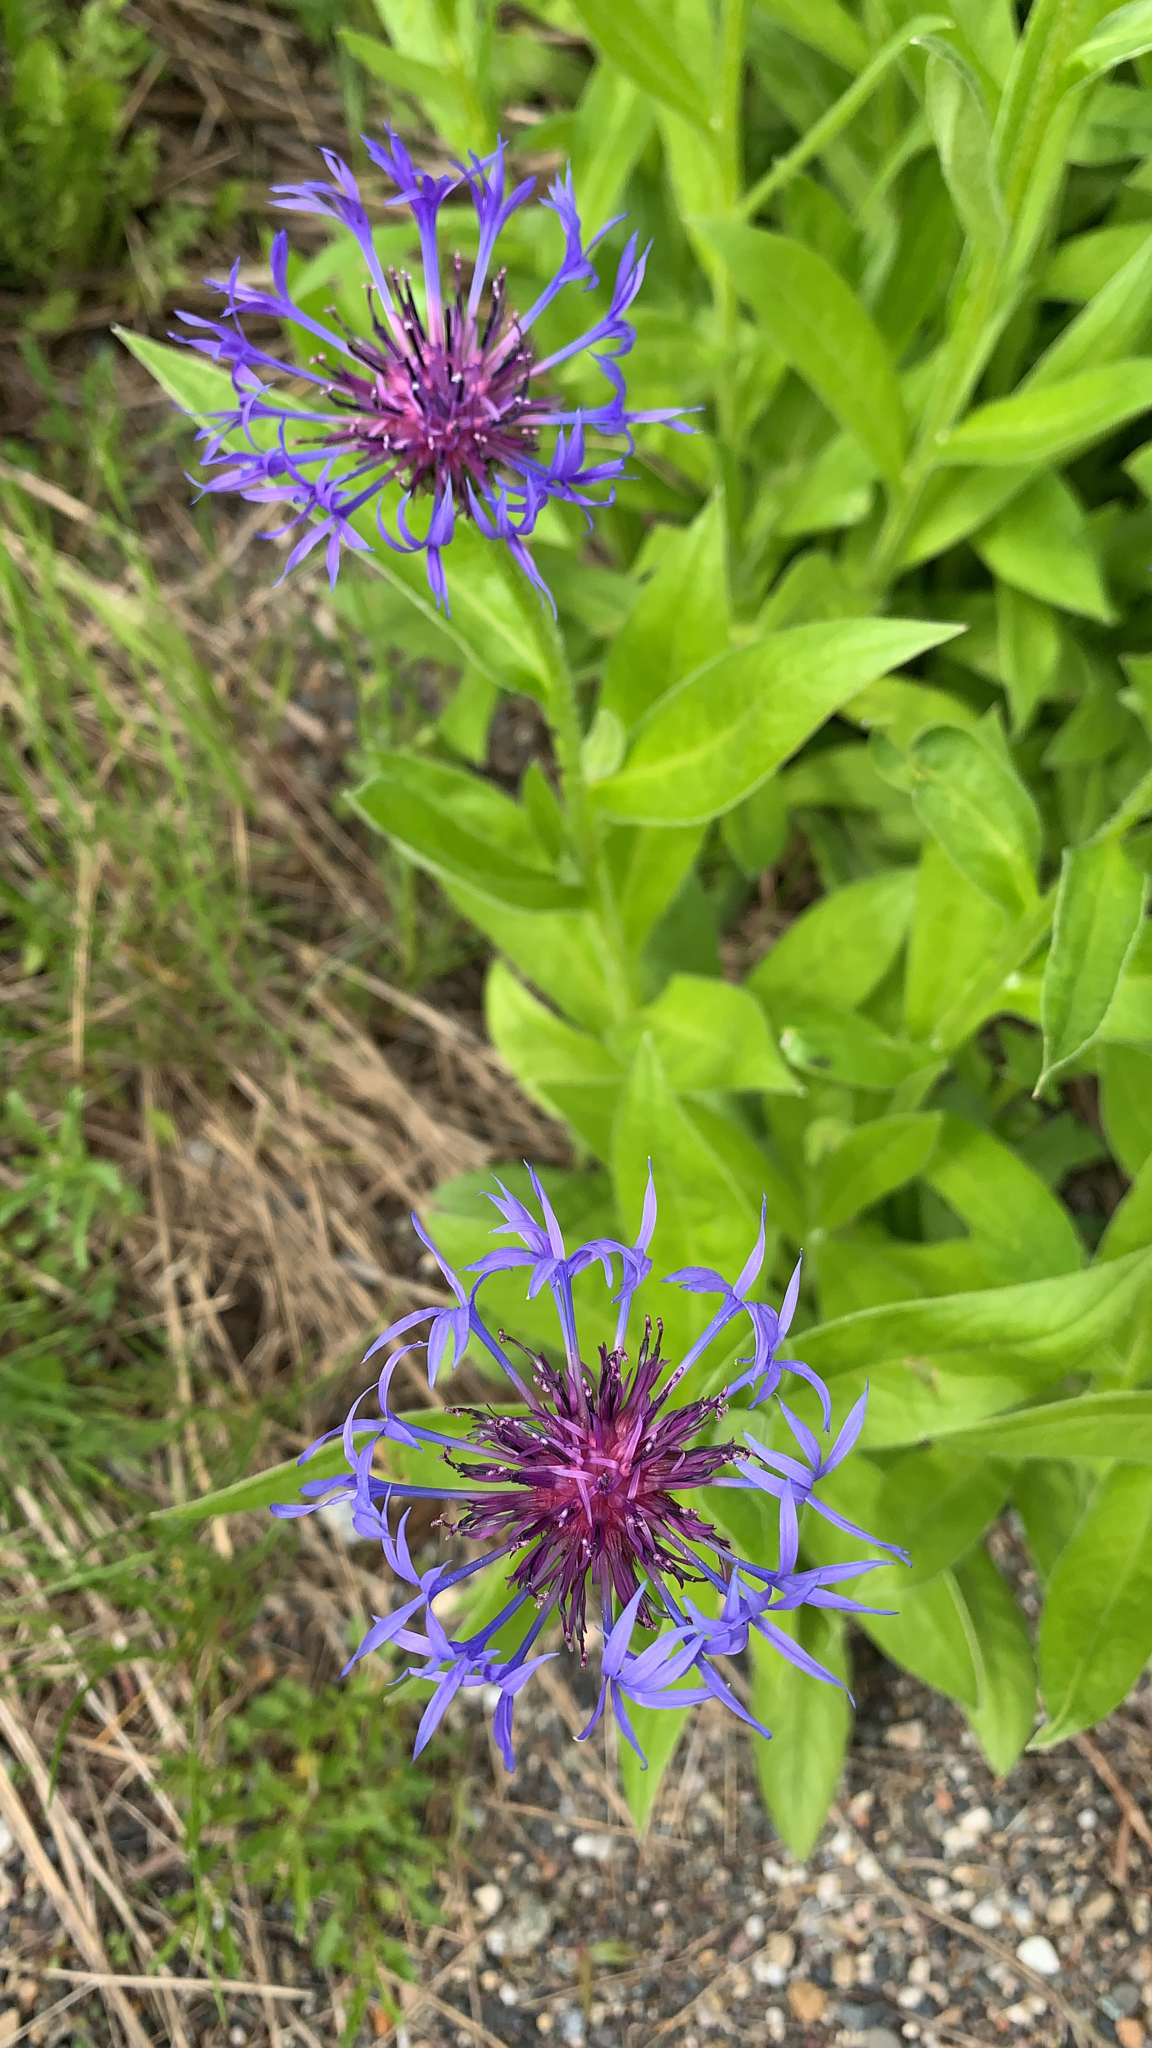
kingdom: Plantae
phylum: Tracheophyta
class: Magnoliopsida
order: Asterales
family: Asteraceae
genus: Centaurea
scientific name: Centaurea montana
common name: Perennial cornflower
